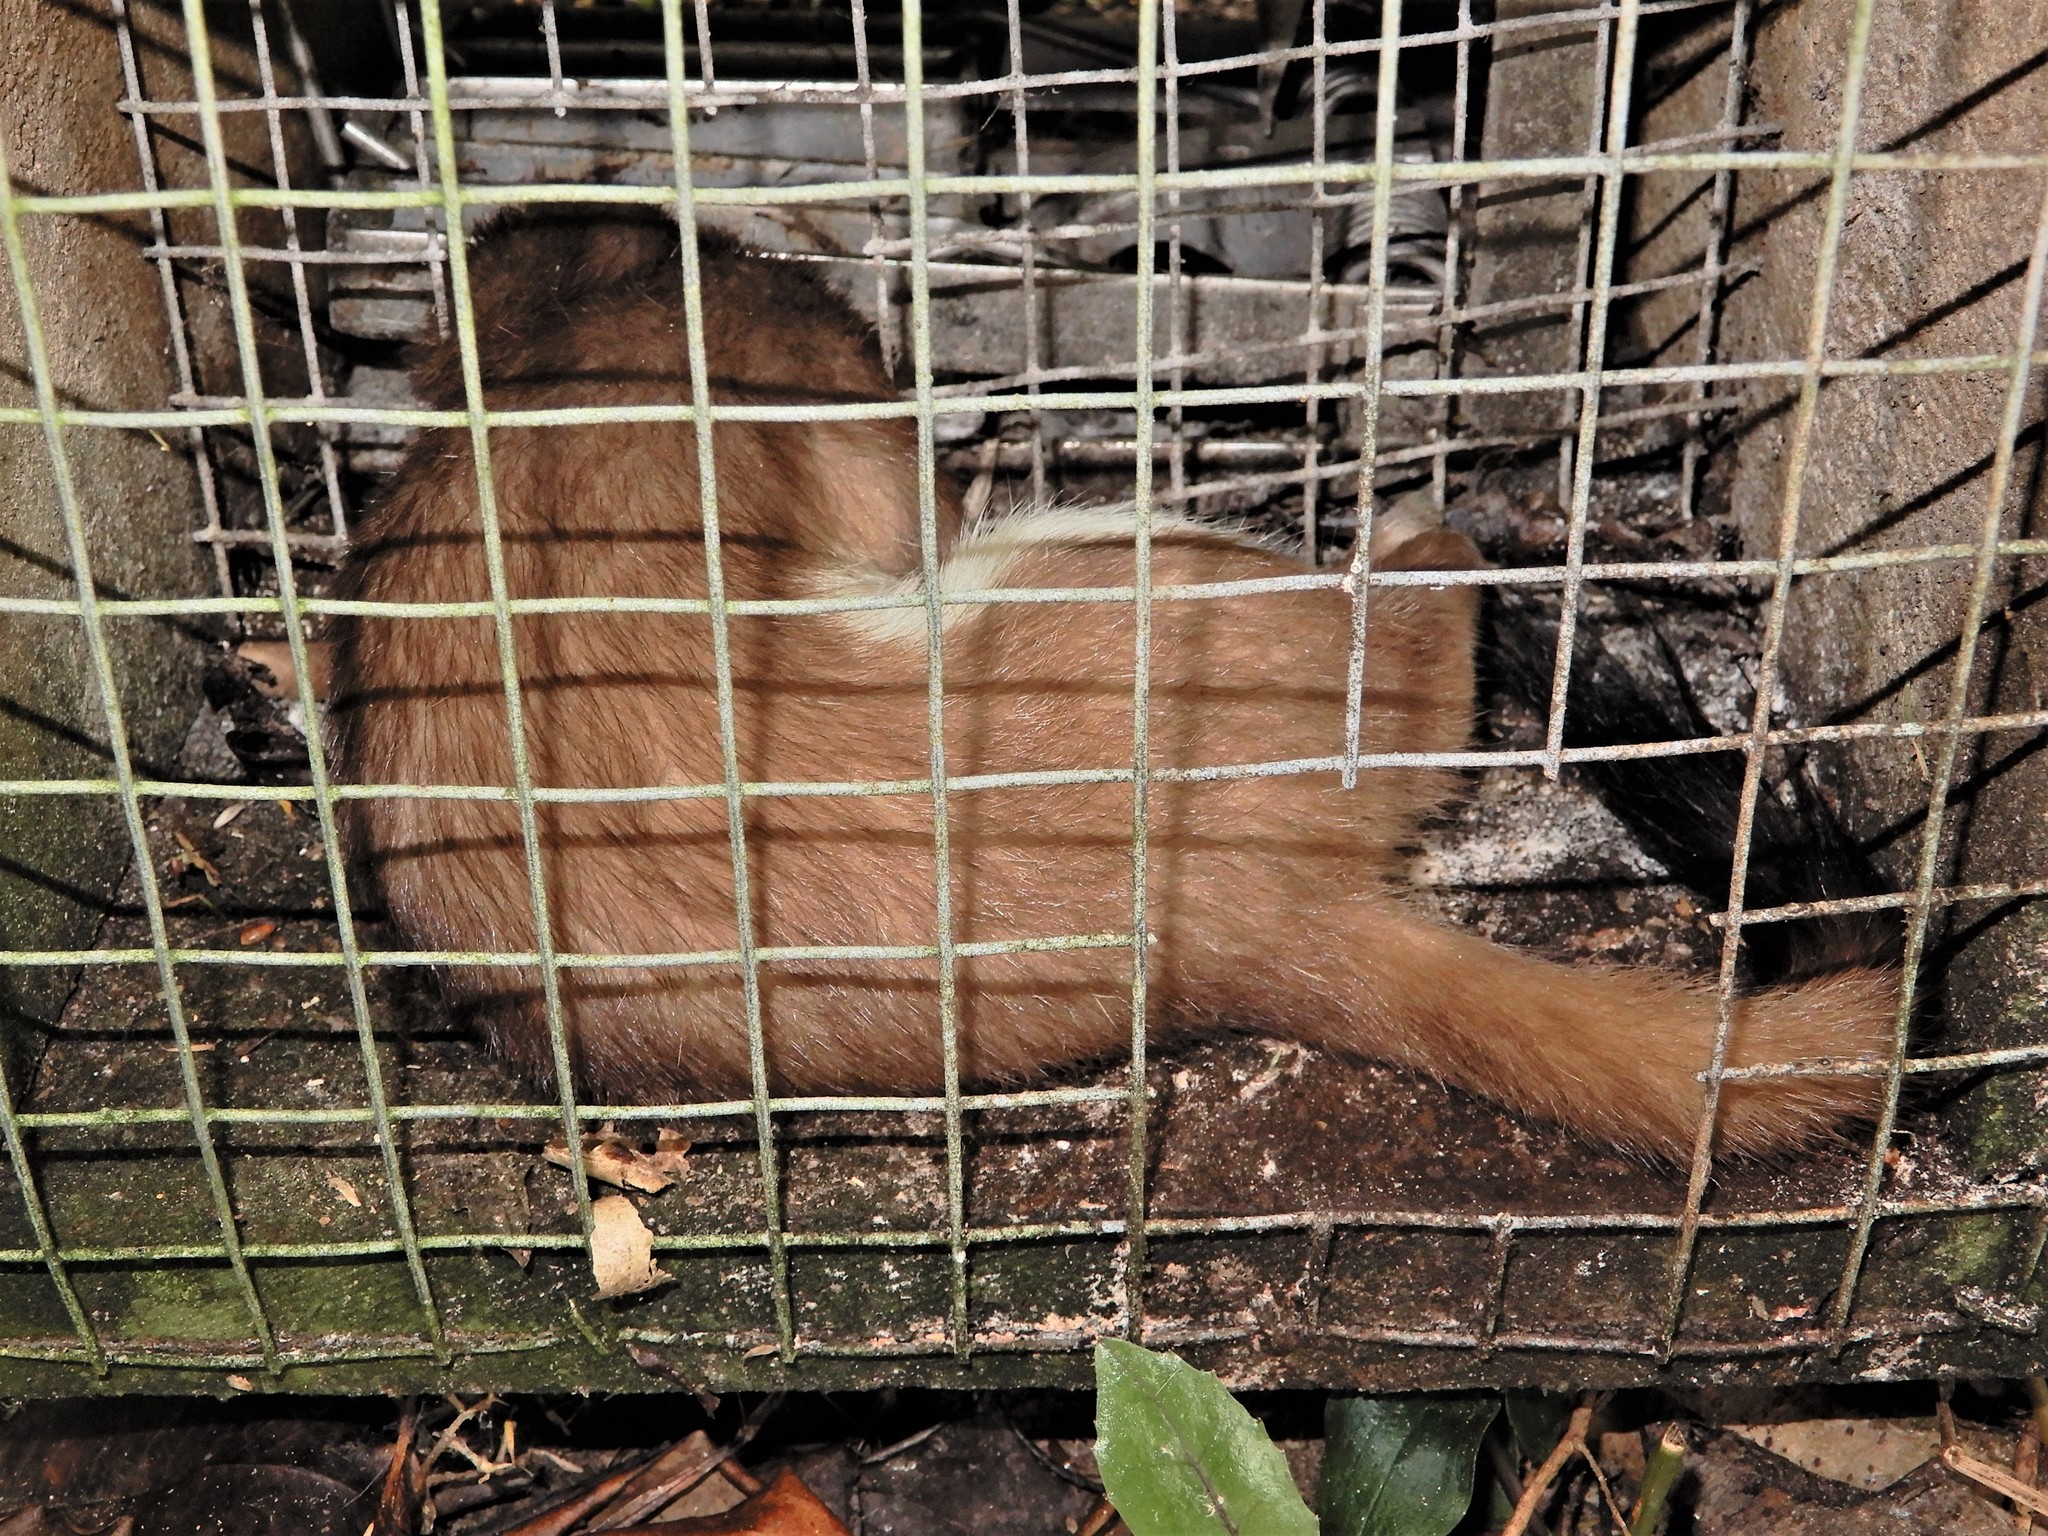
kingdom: Animalia
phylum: Chordata
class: Mammalia
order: Carnivora
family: Mustelidae
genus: Mustela
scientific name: Mustela erminea
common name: Stoat
